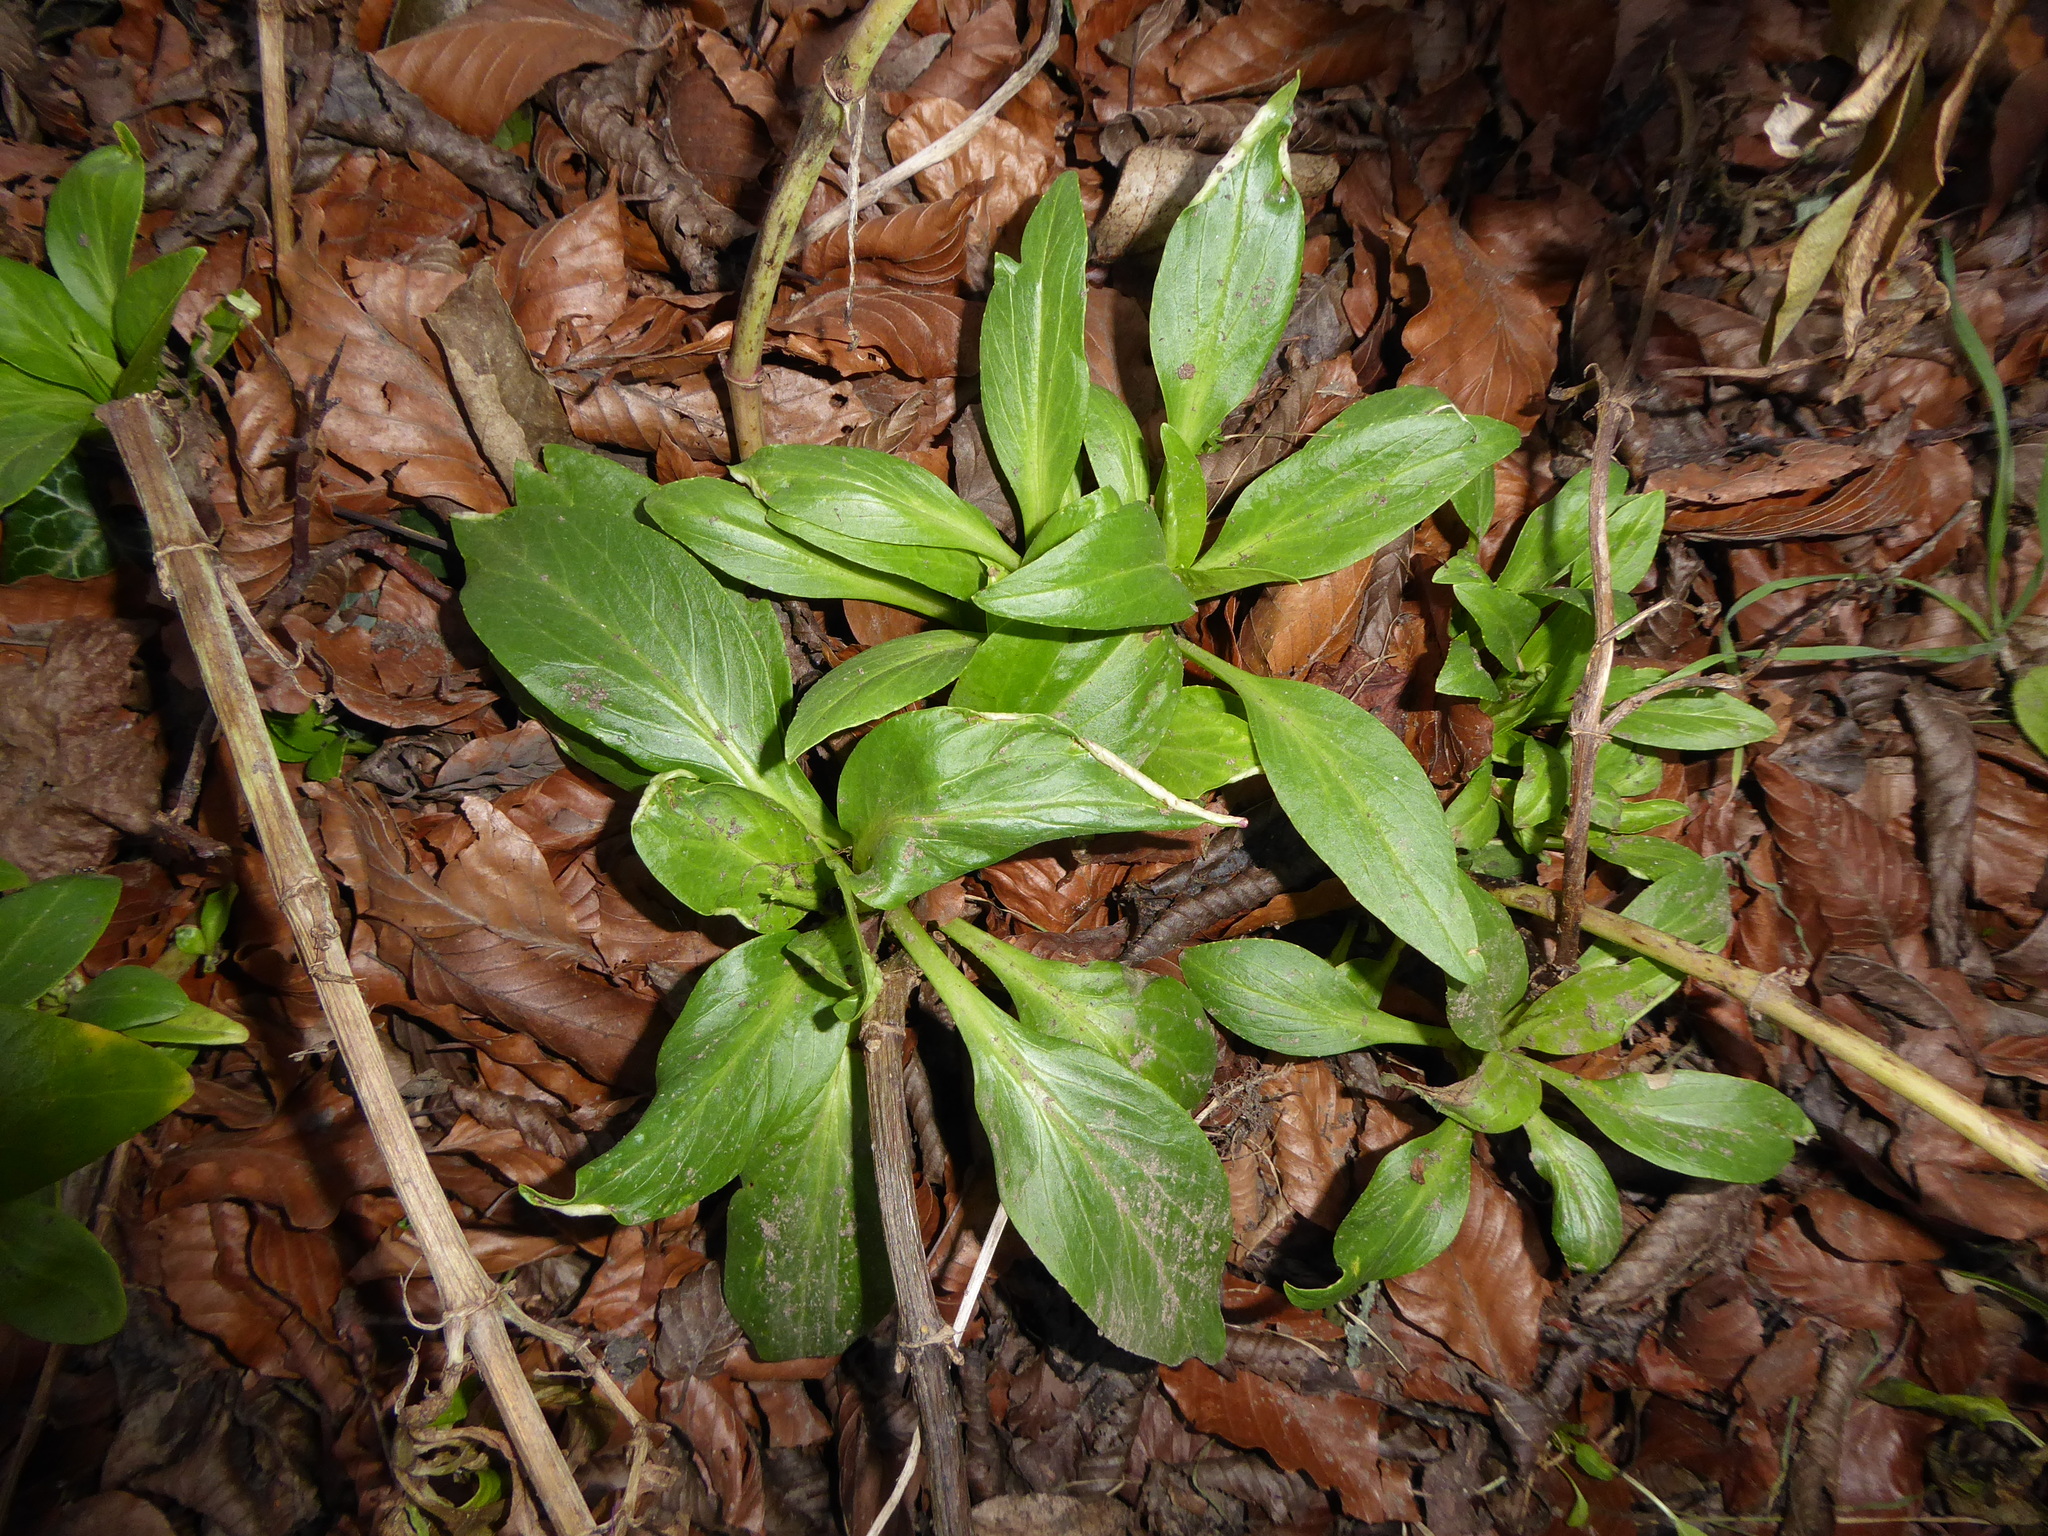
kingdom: Animalia
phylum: Arthropoda
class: Insecta
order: Hemiptera
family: Triozidae
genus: Trioza
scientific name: Trioza centranthi
